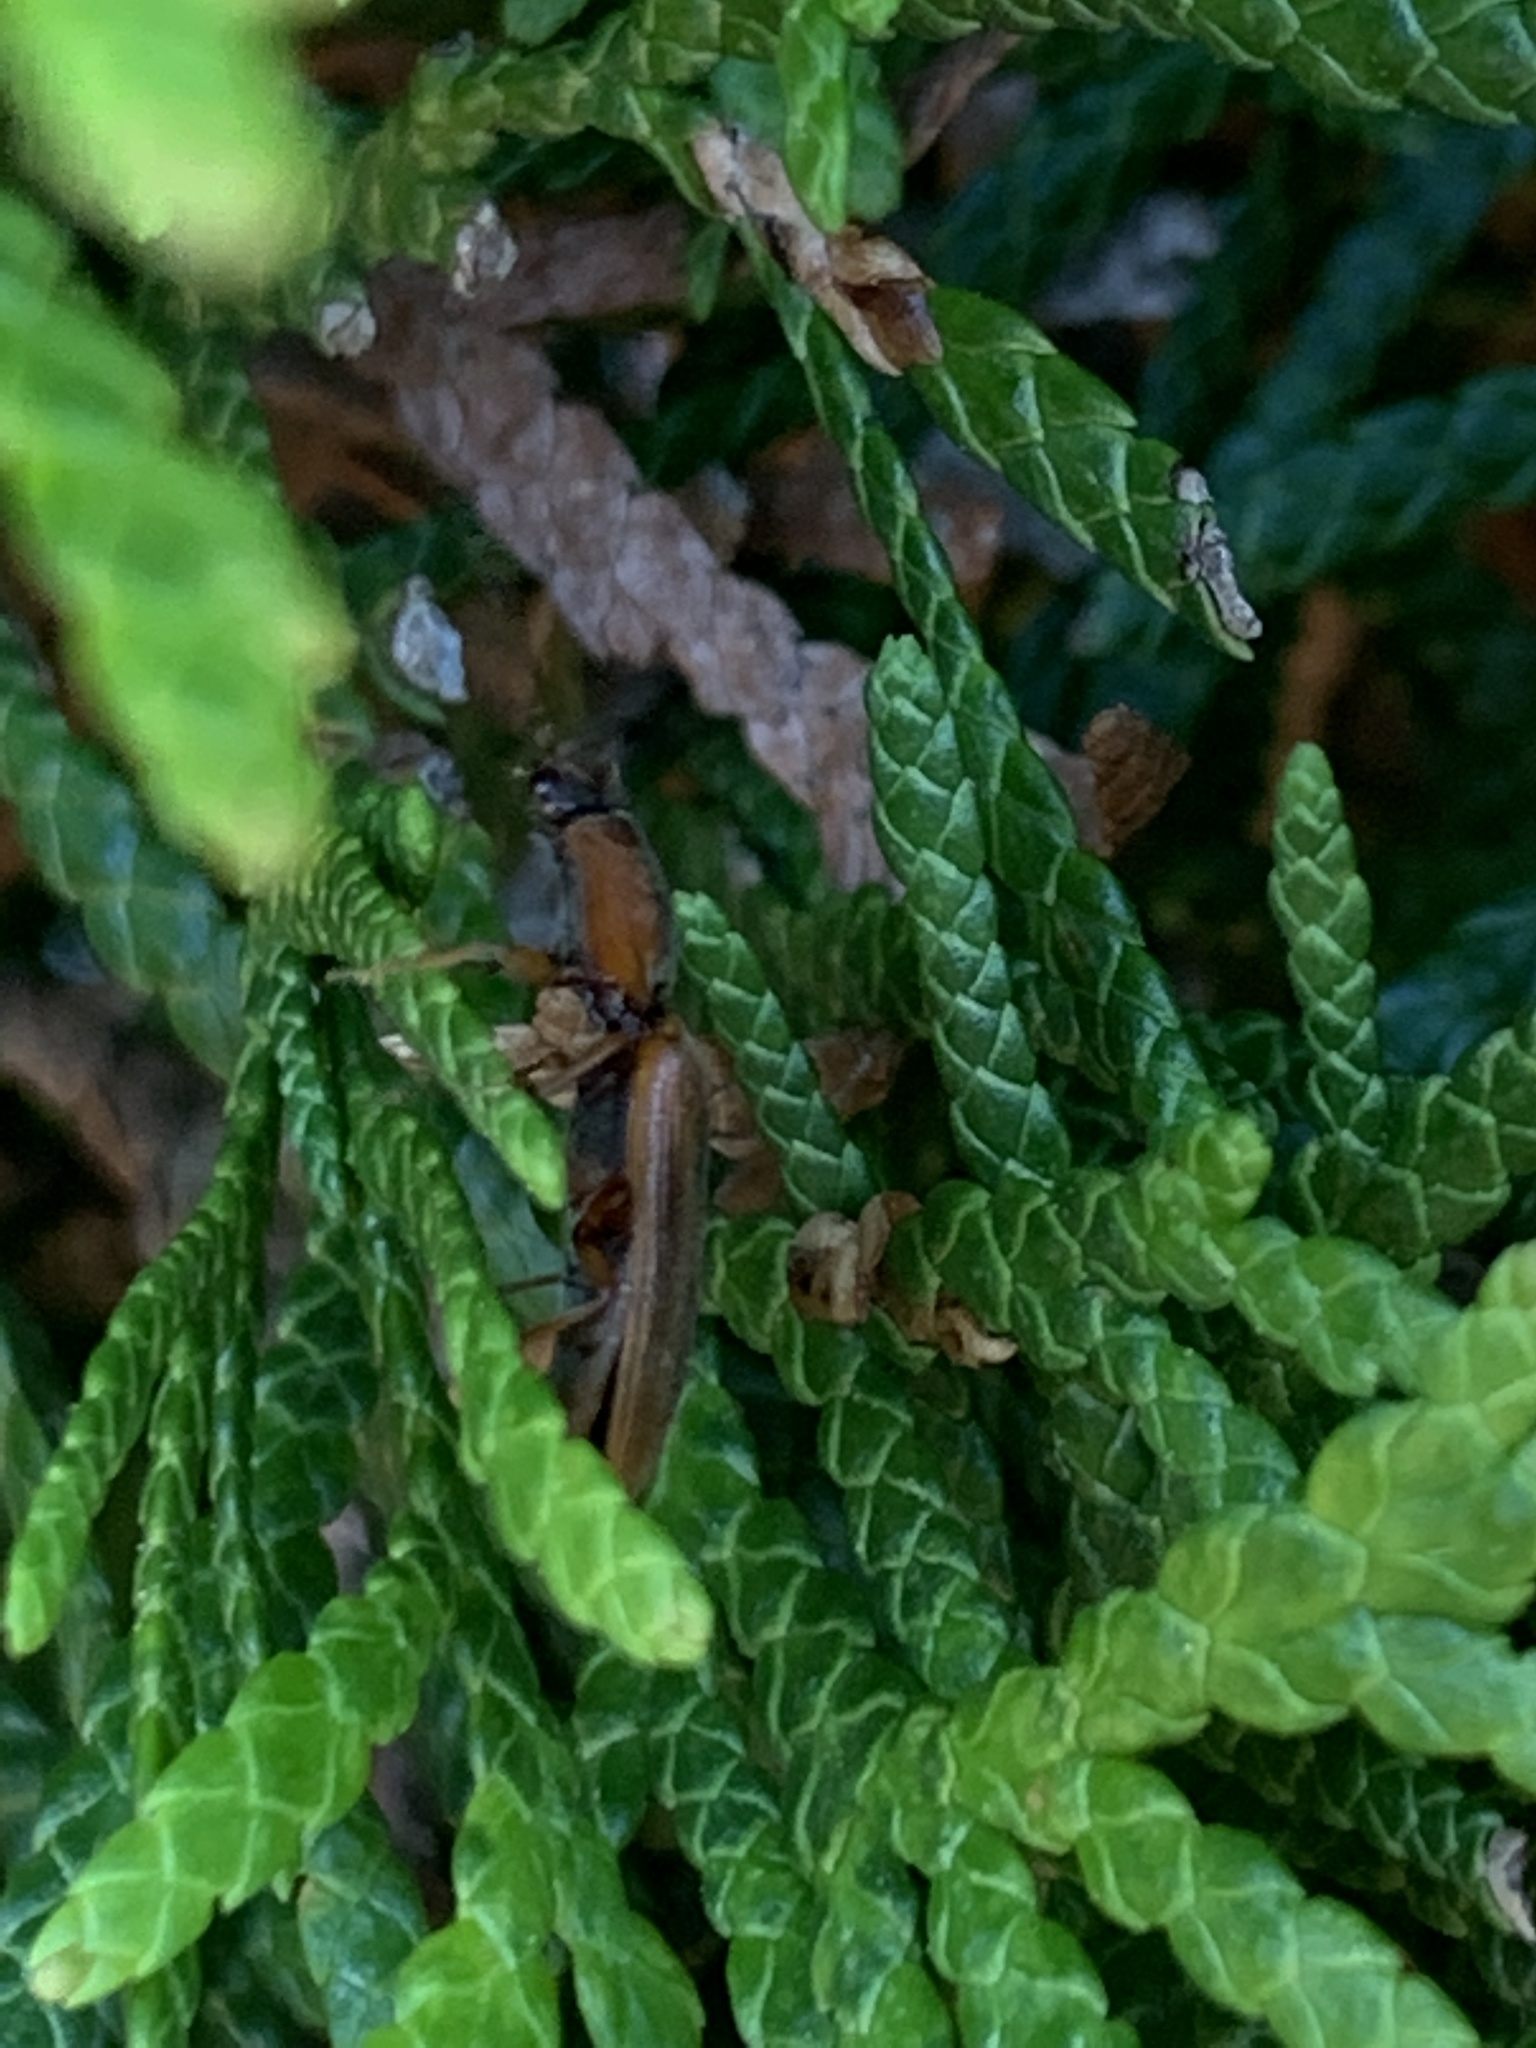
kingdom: Animalia
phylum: Arthropoda
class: Insecta
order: Coleoptera
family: Elateridae
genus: Athous
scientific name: Athous vittiger
